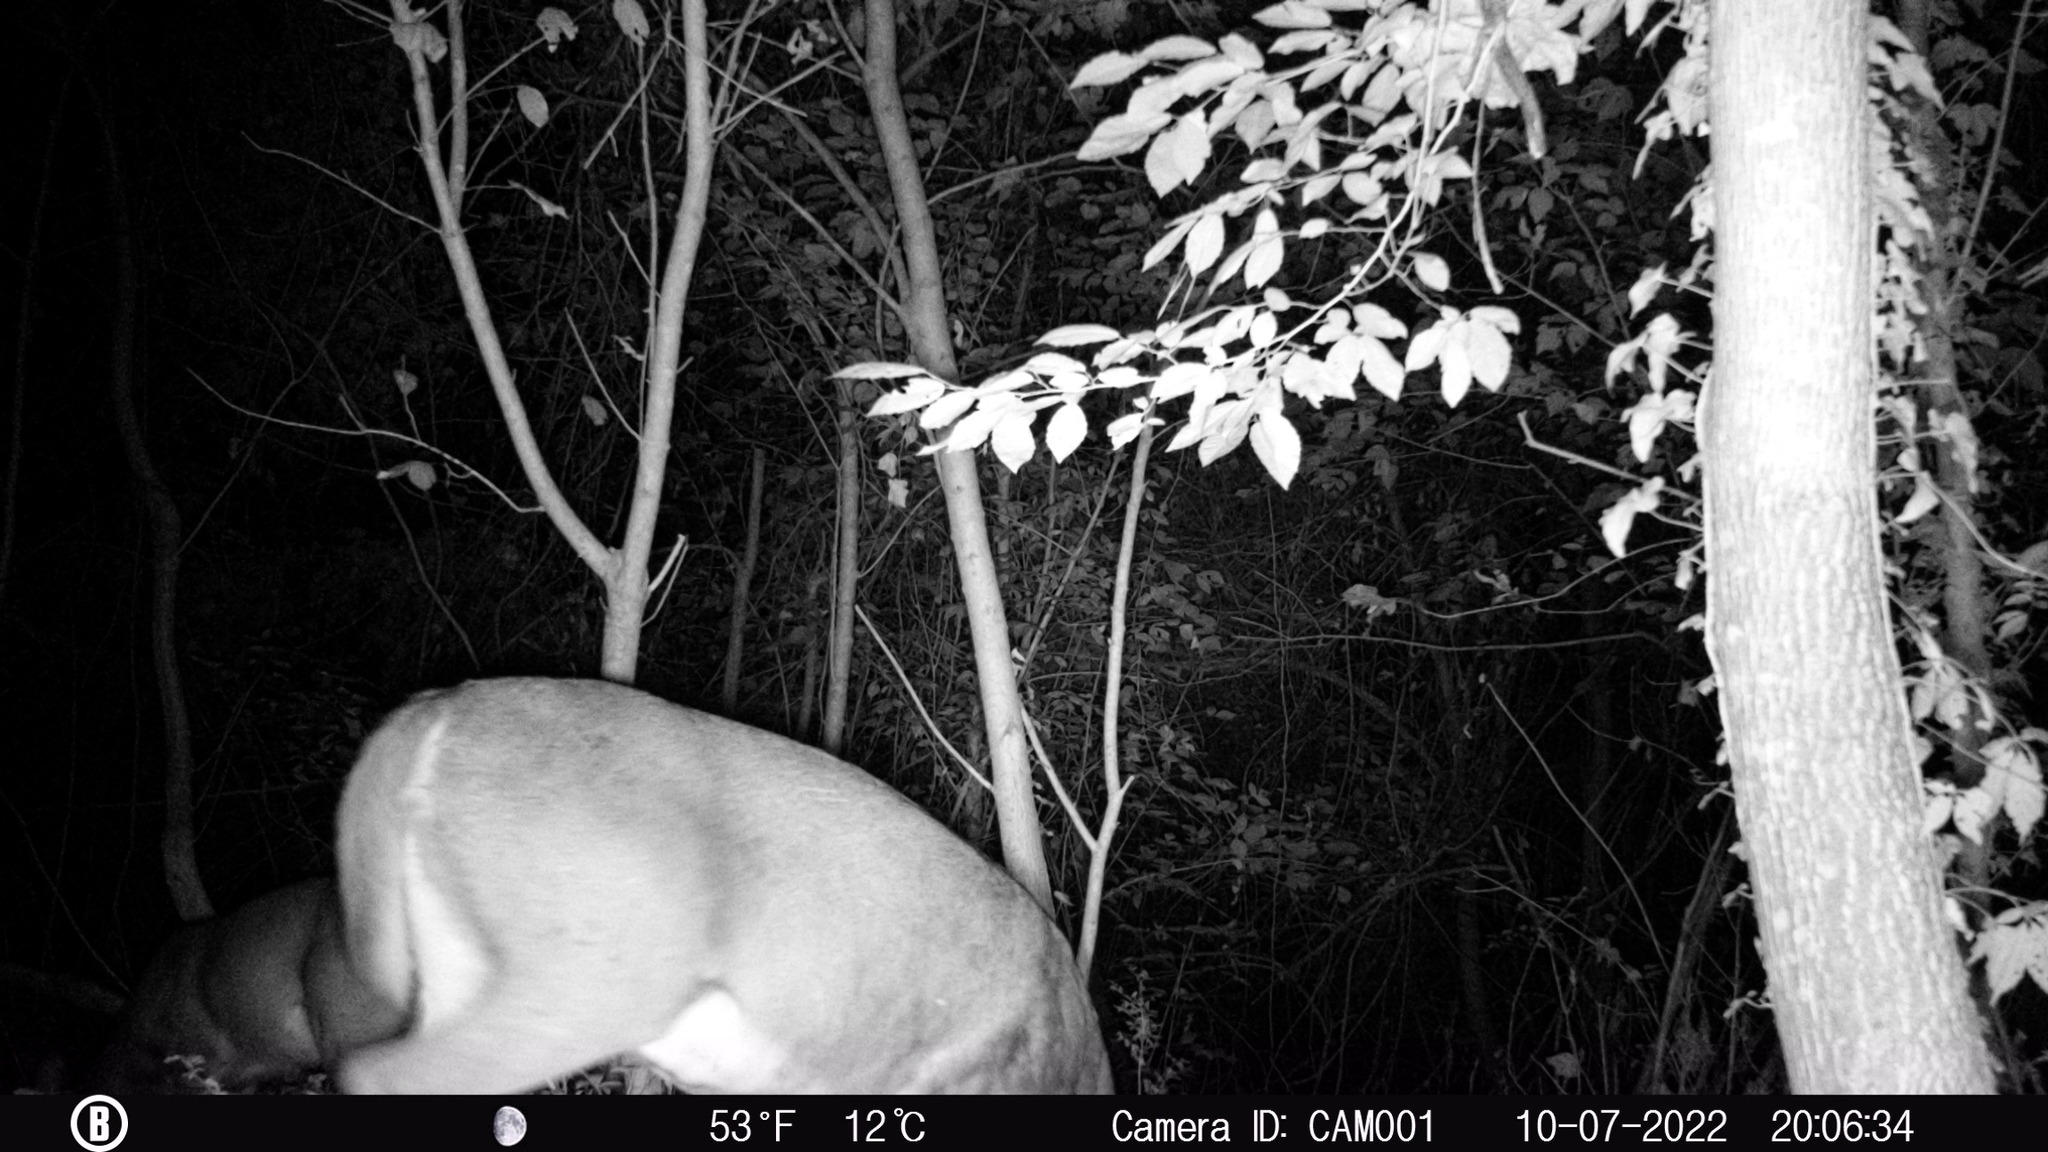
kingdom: Animalia
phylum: Chordata
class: Mammalia
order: Artiodactyla
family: Cervidae
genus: Odocoileus
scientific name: Odocoileus virginianus
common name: White-tailed deer
